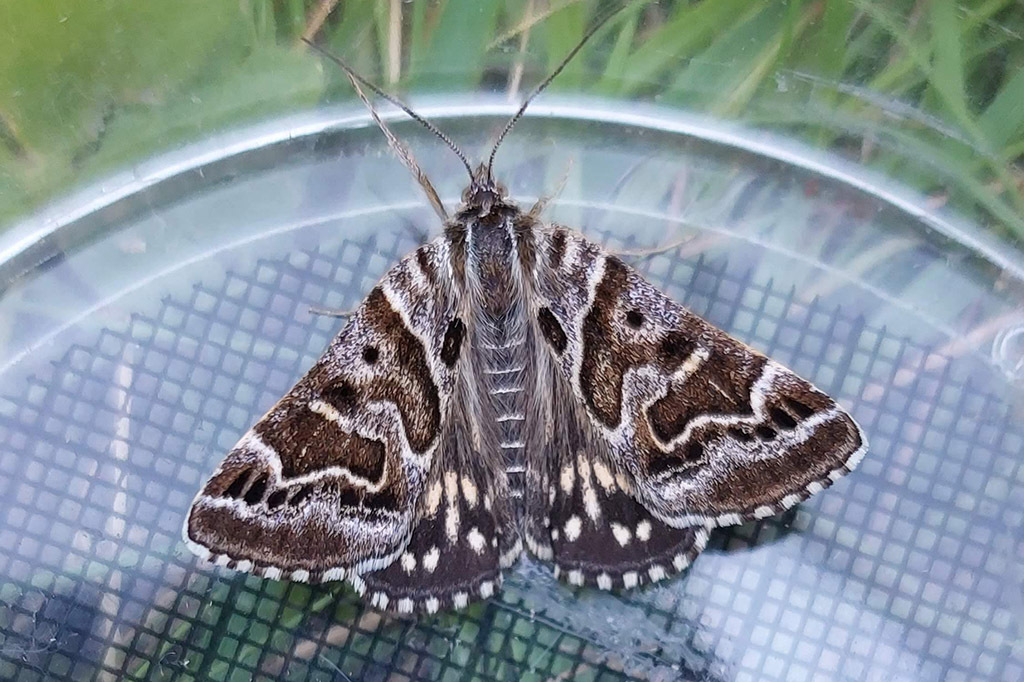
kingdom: Animalia
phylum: Arthropoda
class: Insecta
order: Lepidoptera
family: Erebidae
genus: Callistege
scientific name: Callistege mi
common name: Mother shipton
